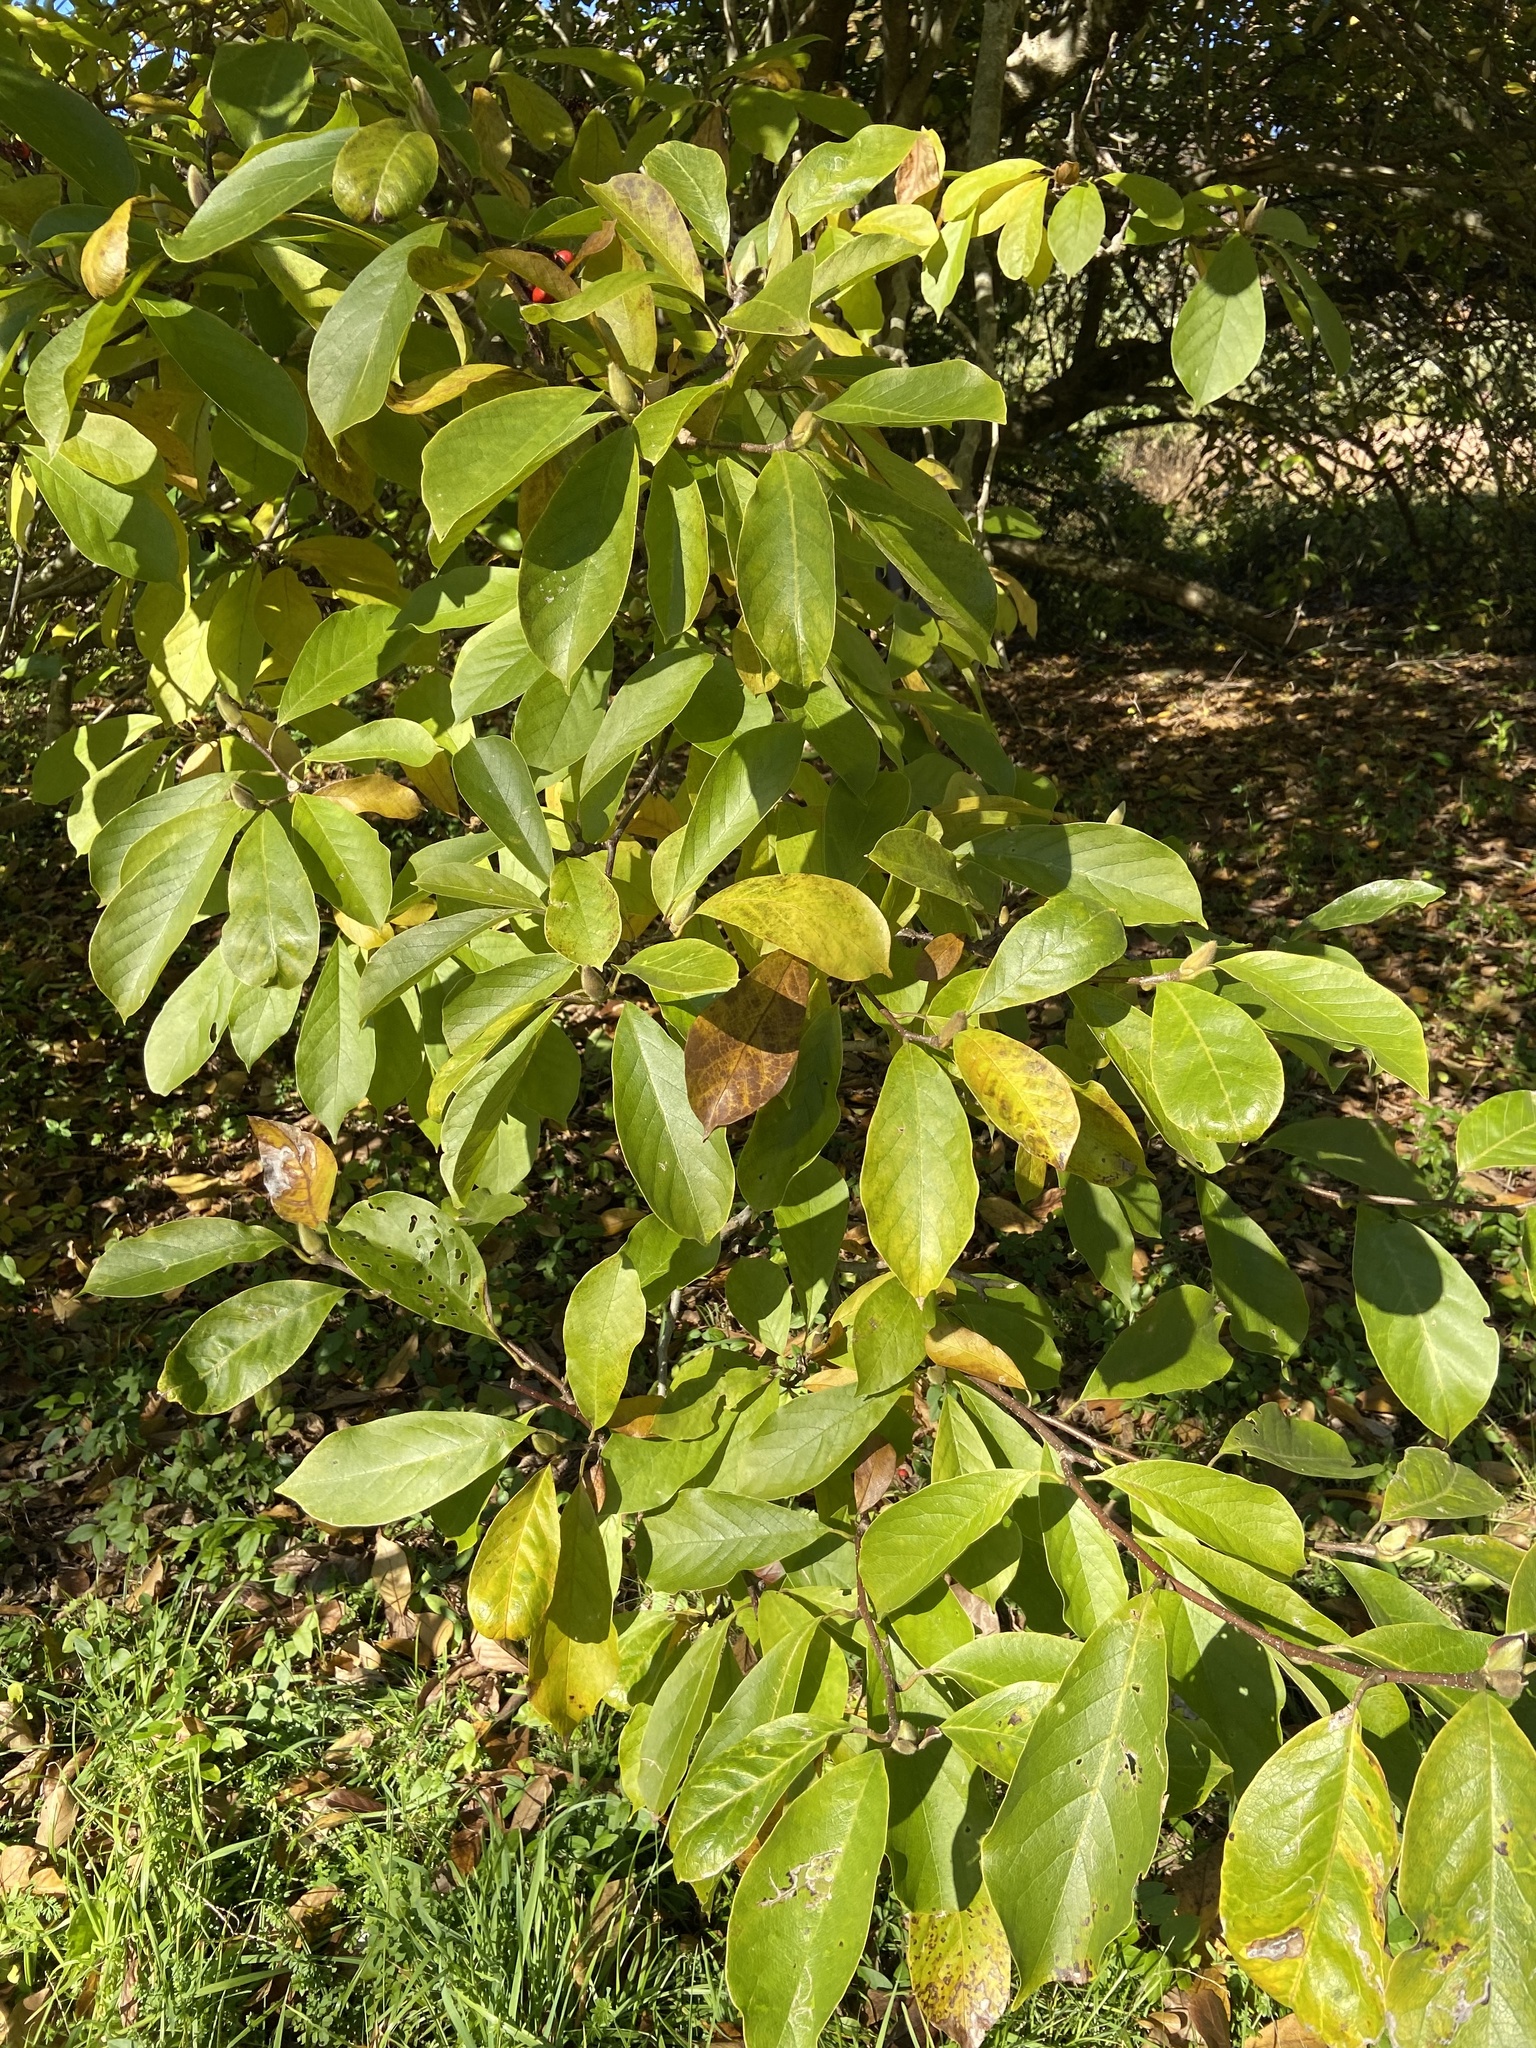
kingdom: Plantae
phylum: Tracheophyta
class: Magnoliopsida
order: Magnoliales
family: Magnoliaceae
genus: Magnolia
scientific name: Magnolia virginiana
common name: Swamp bay
